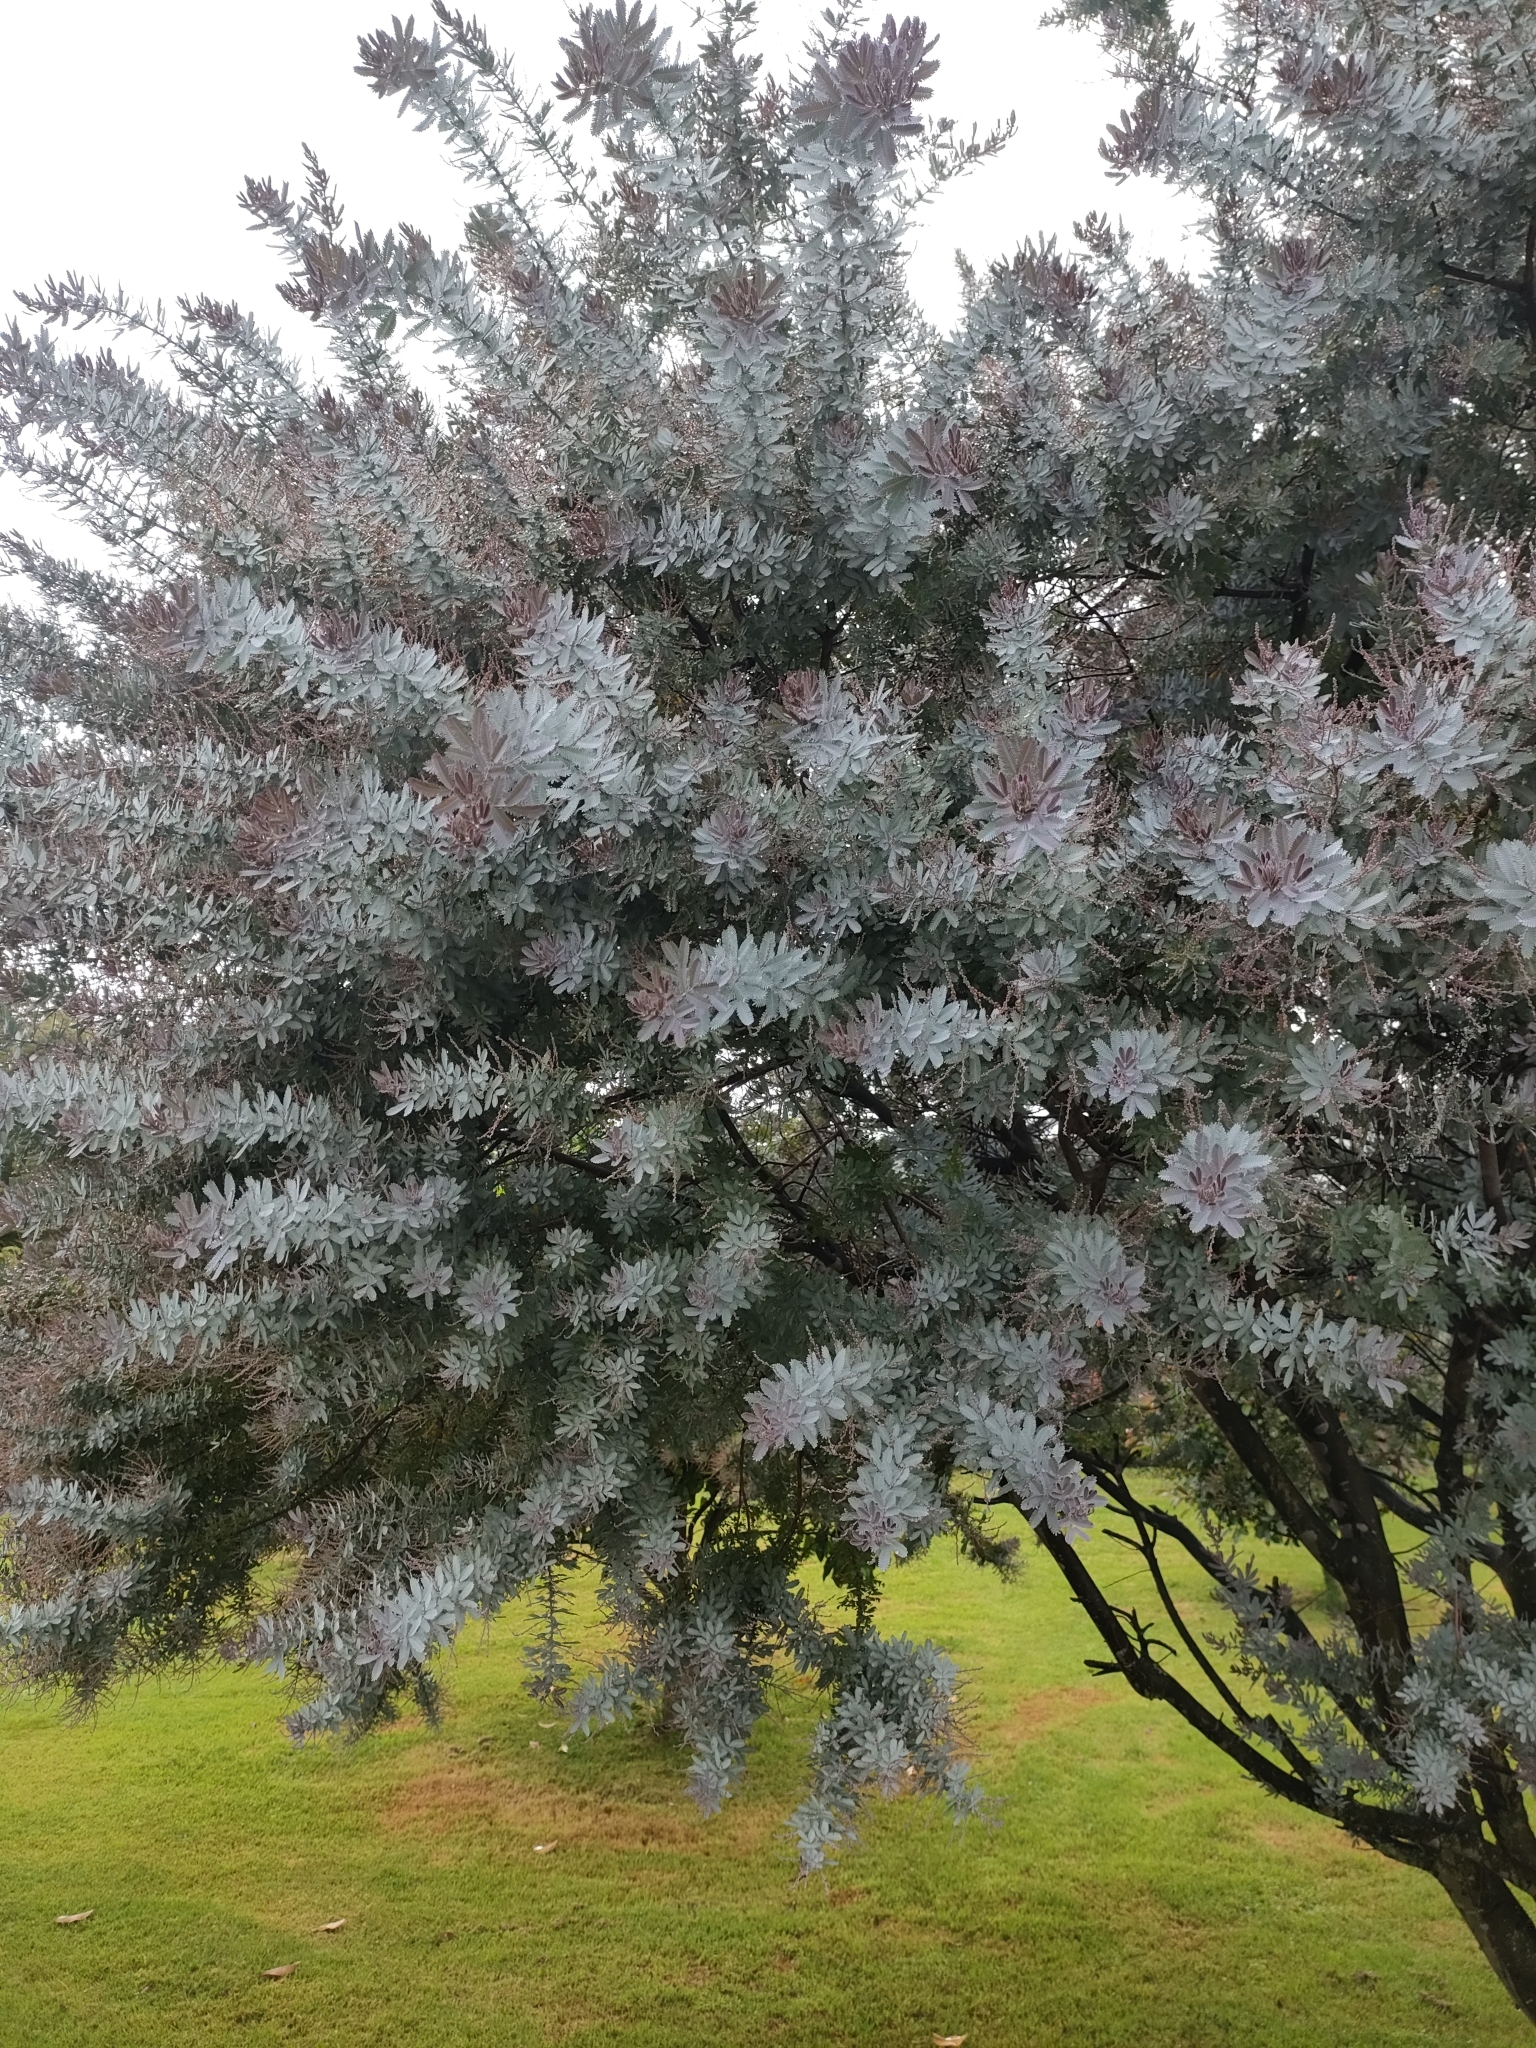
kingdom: Plantae
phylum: Tracheophyta
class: Magnoliopsida
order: Fabales
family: Fabaceae
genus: Acacia
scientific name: Acacia baileyana
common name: Cootamundra wattle
